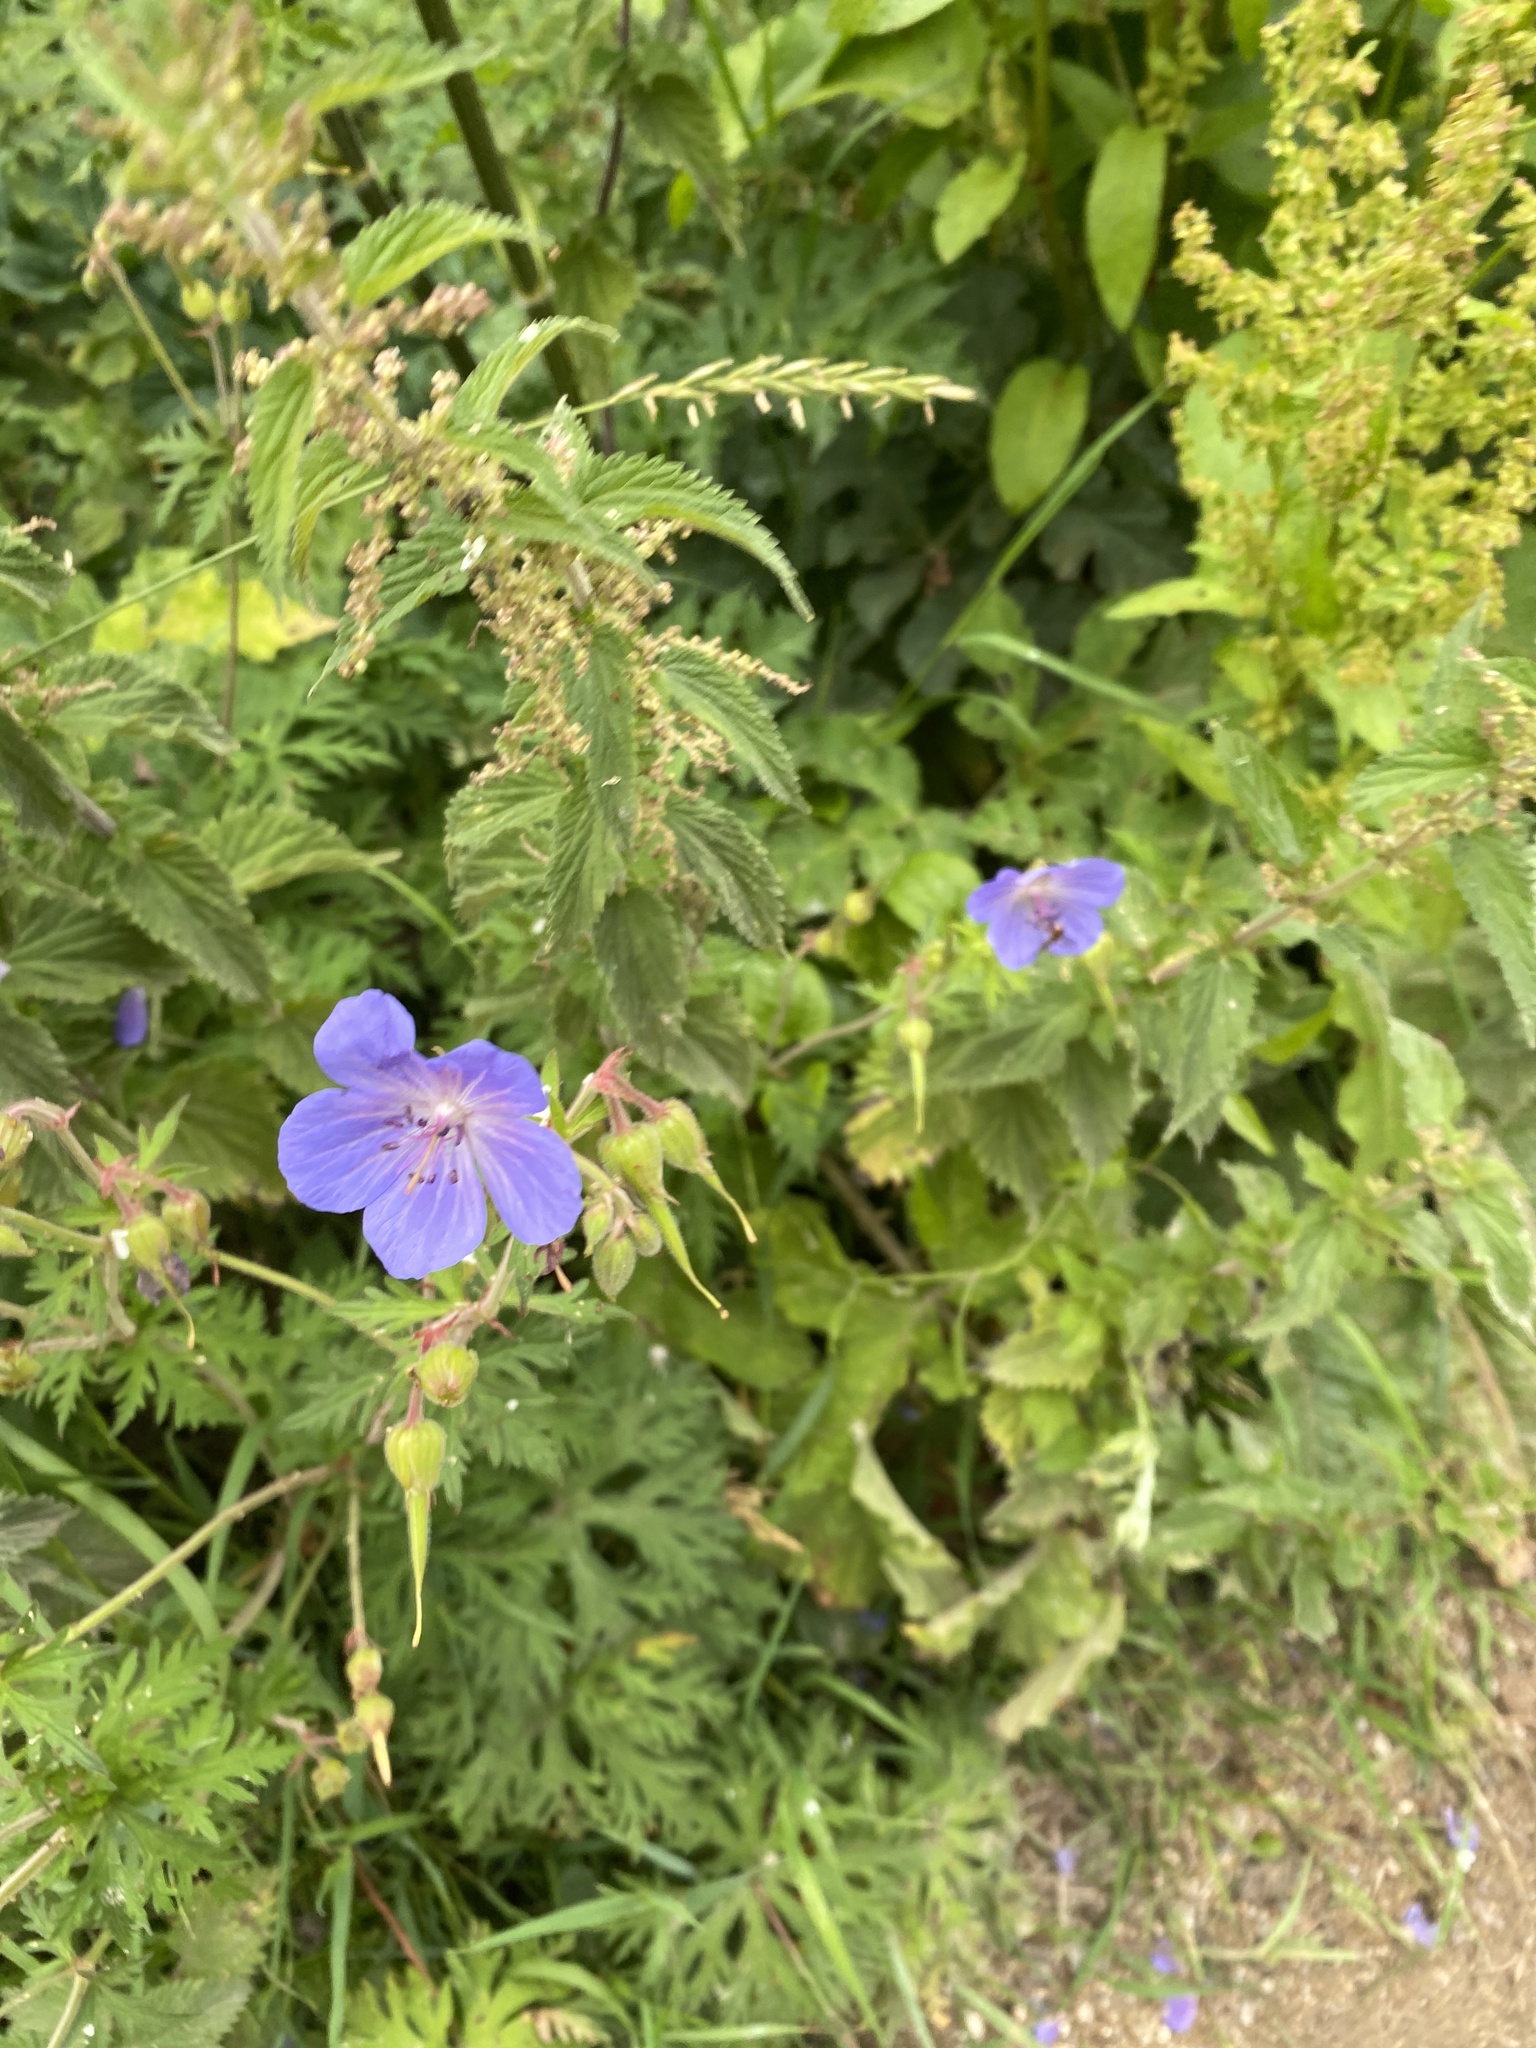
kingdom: Plantae
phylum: Tracheophyta
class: Magnoliopsida
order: Geraniales
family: Geraniaceae
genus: Geranium
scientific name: Geranium pratense
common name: Meadow crane's-bill
